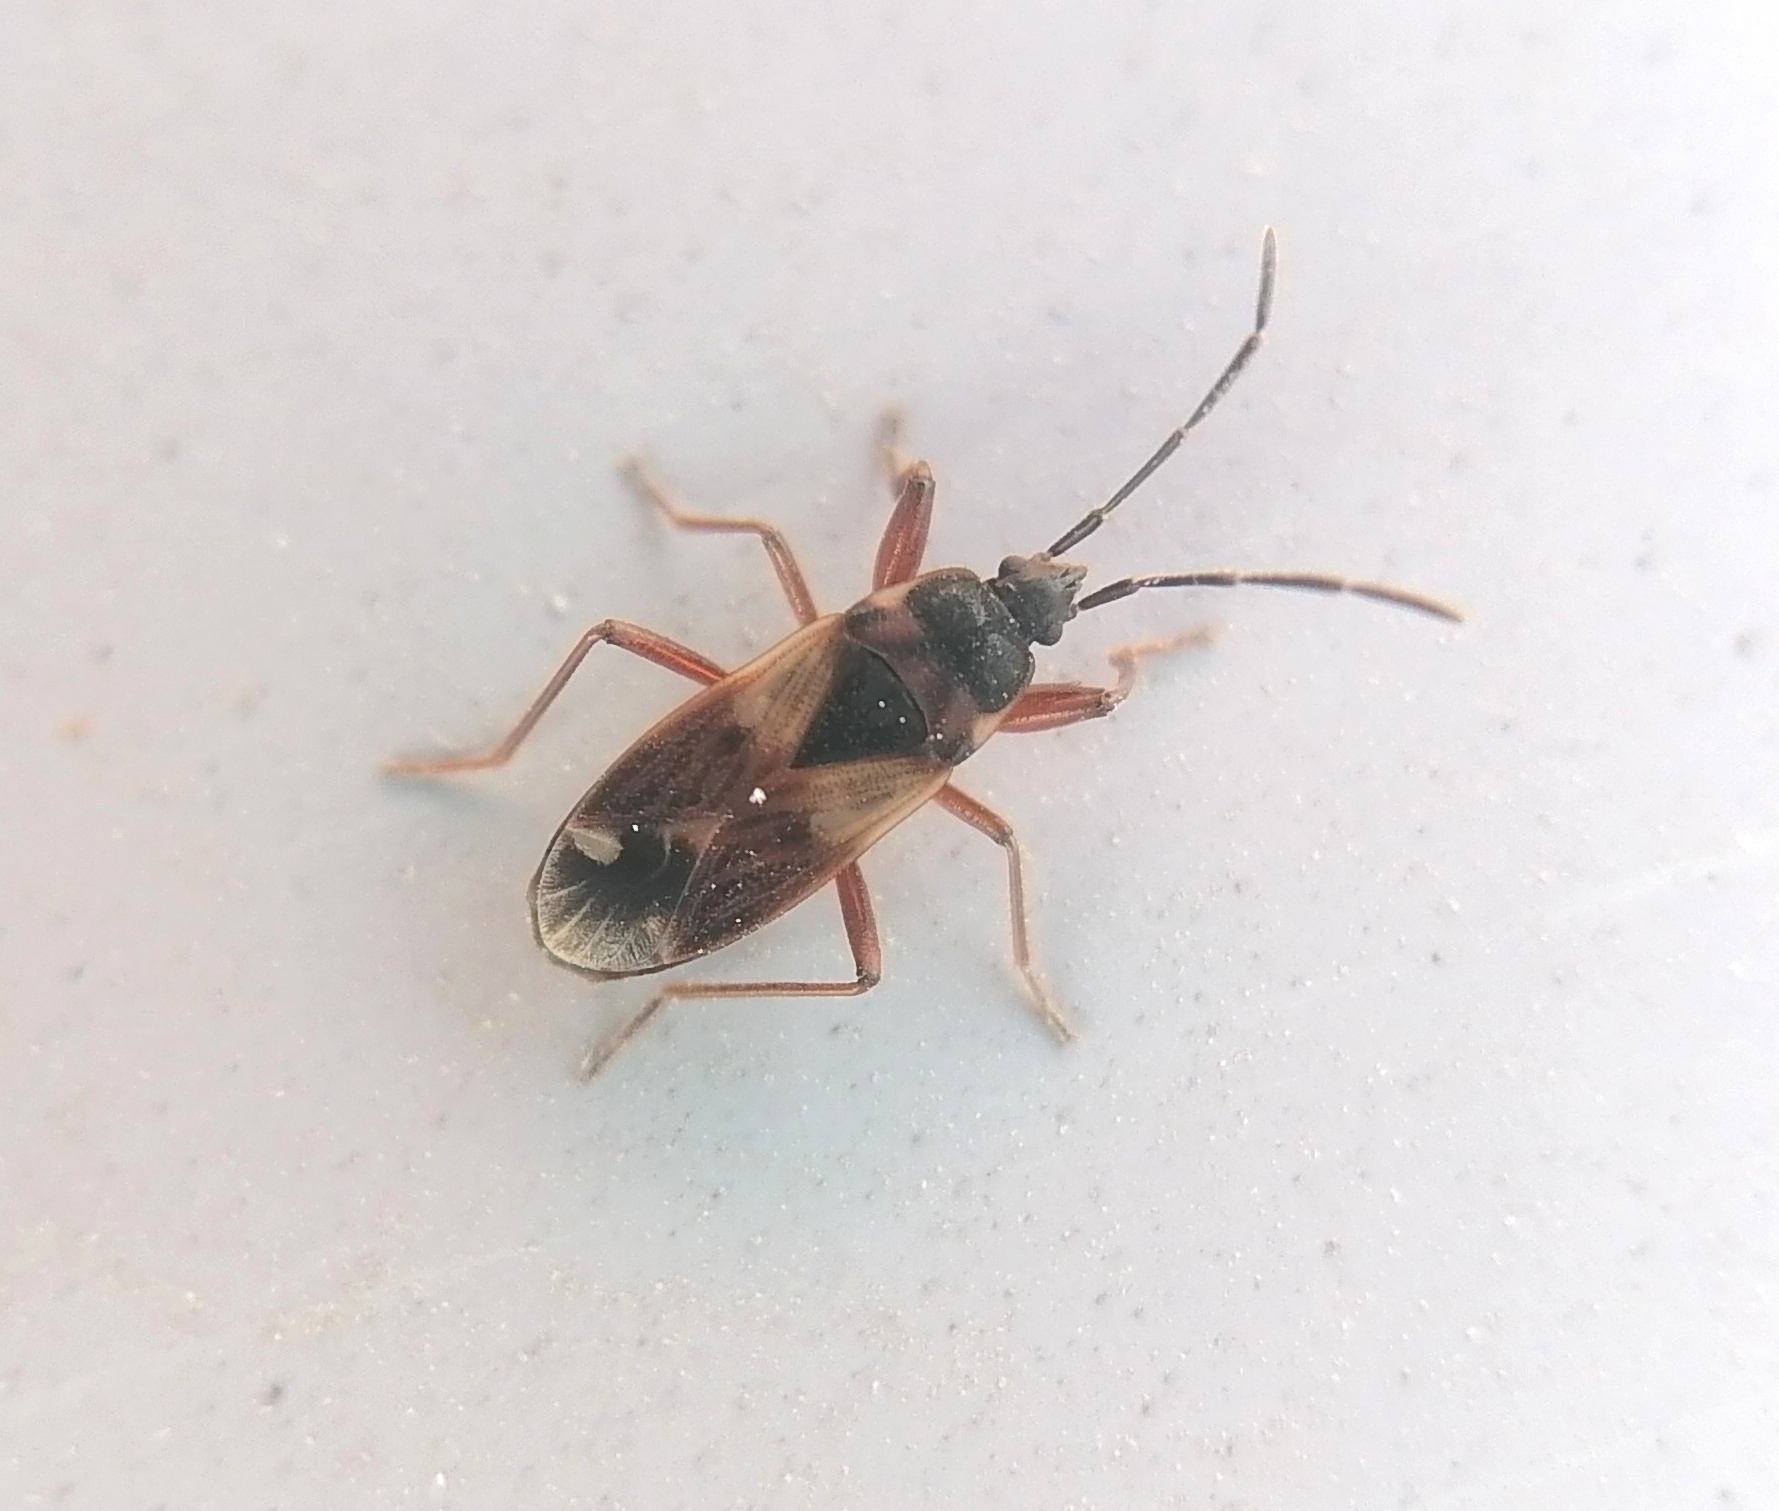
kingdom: Animalia
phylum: Arthropoda
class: Insecta
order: Hemiptera
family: Rhyparochromidae
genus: Eremocoris
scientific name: Eremocoris abietis
